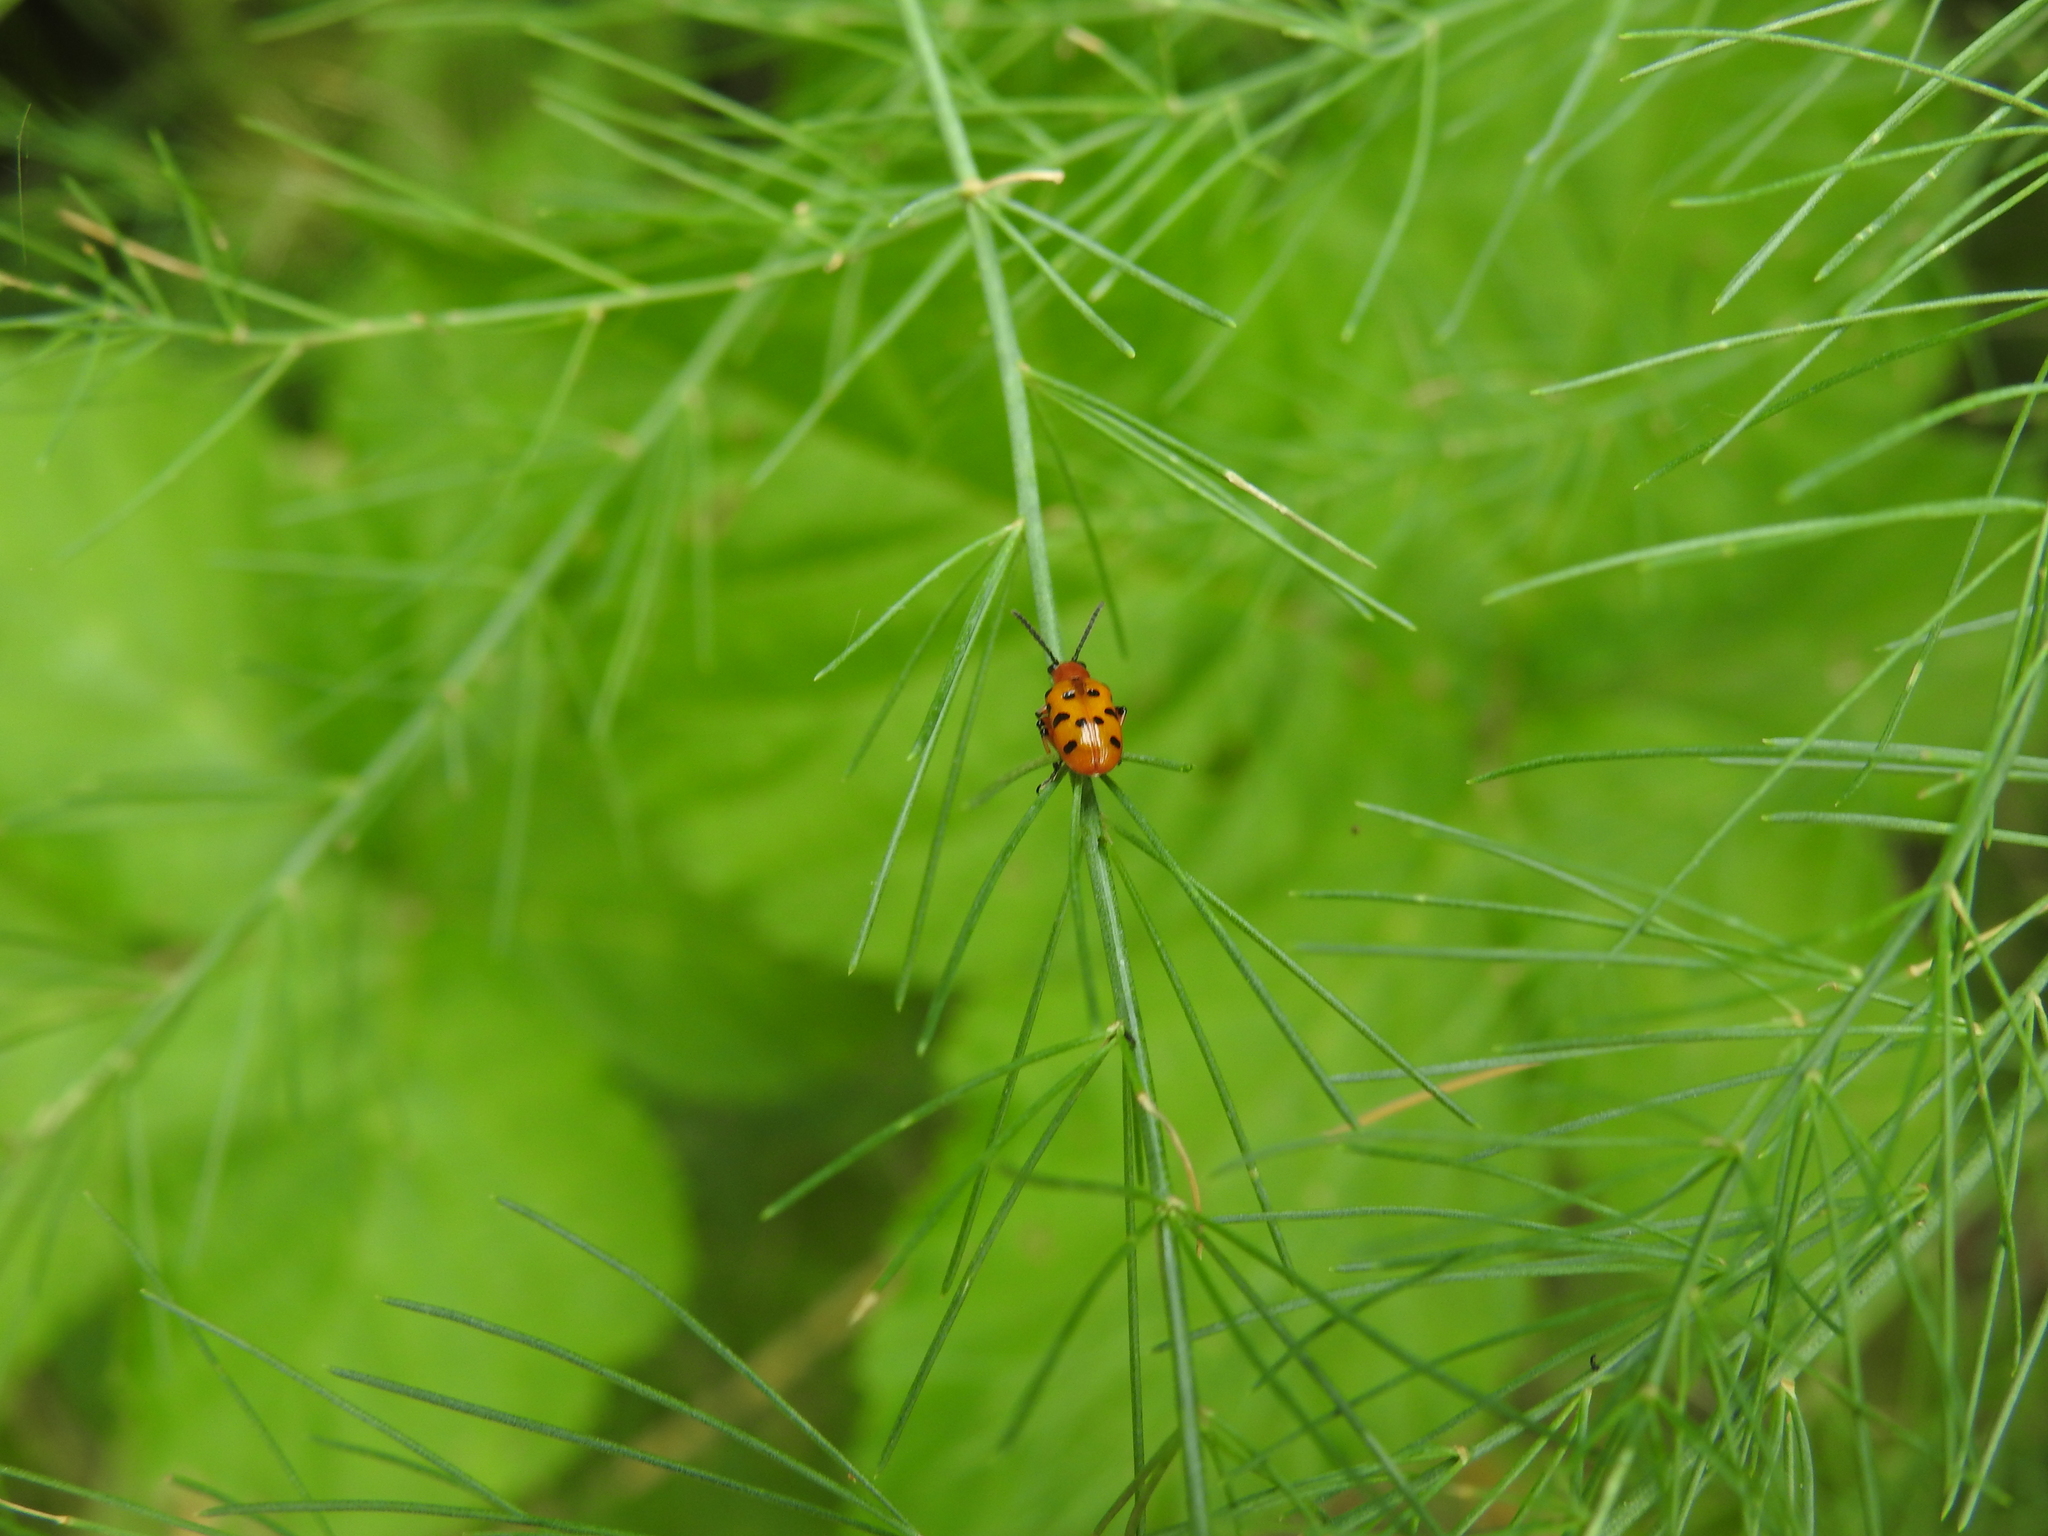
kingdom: Animalia
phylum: Arthropoda
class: Insecta
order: Coleoptera
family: Chrysomelidae
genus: Crioceris
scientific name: Crioceris duodecimpunctata
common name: Twelve-spotted asparagus beetle
